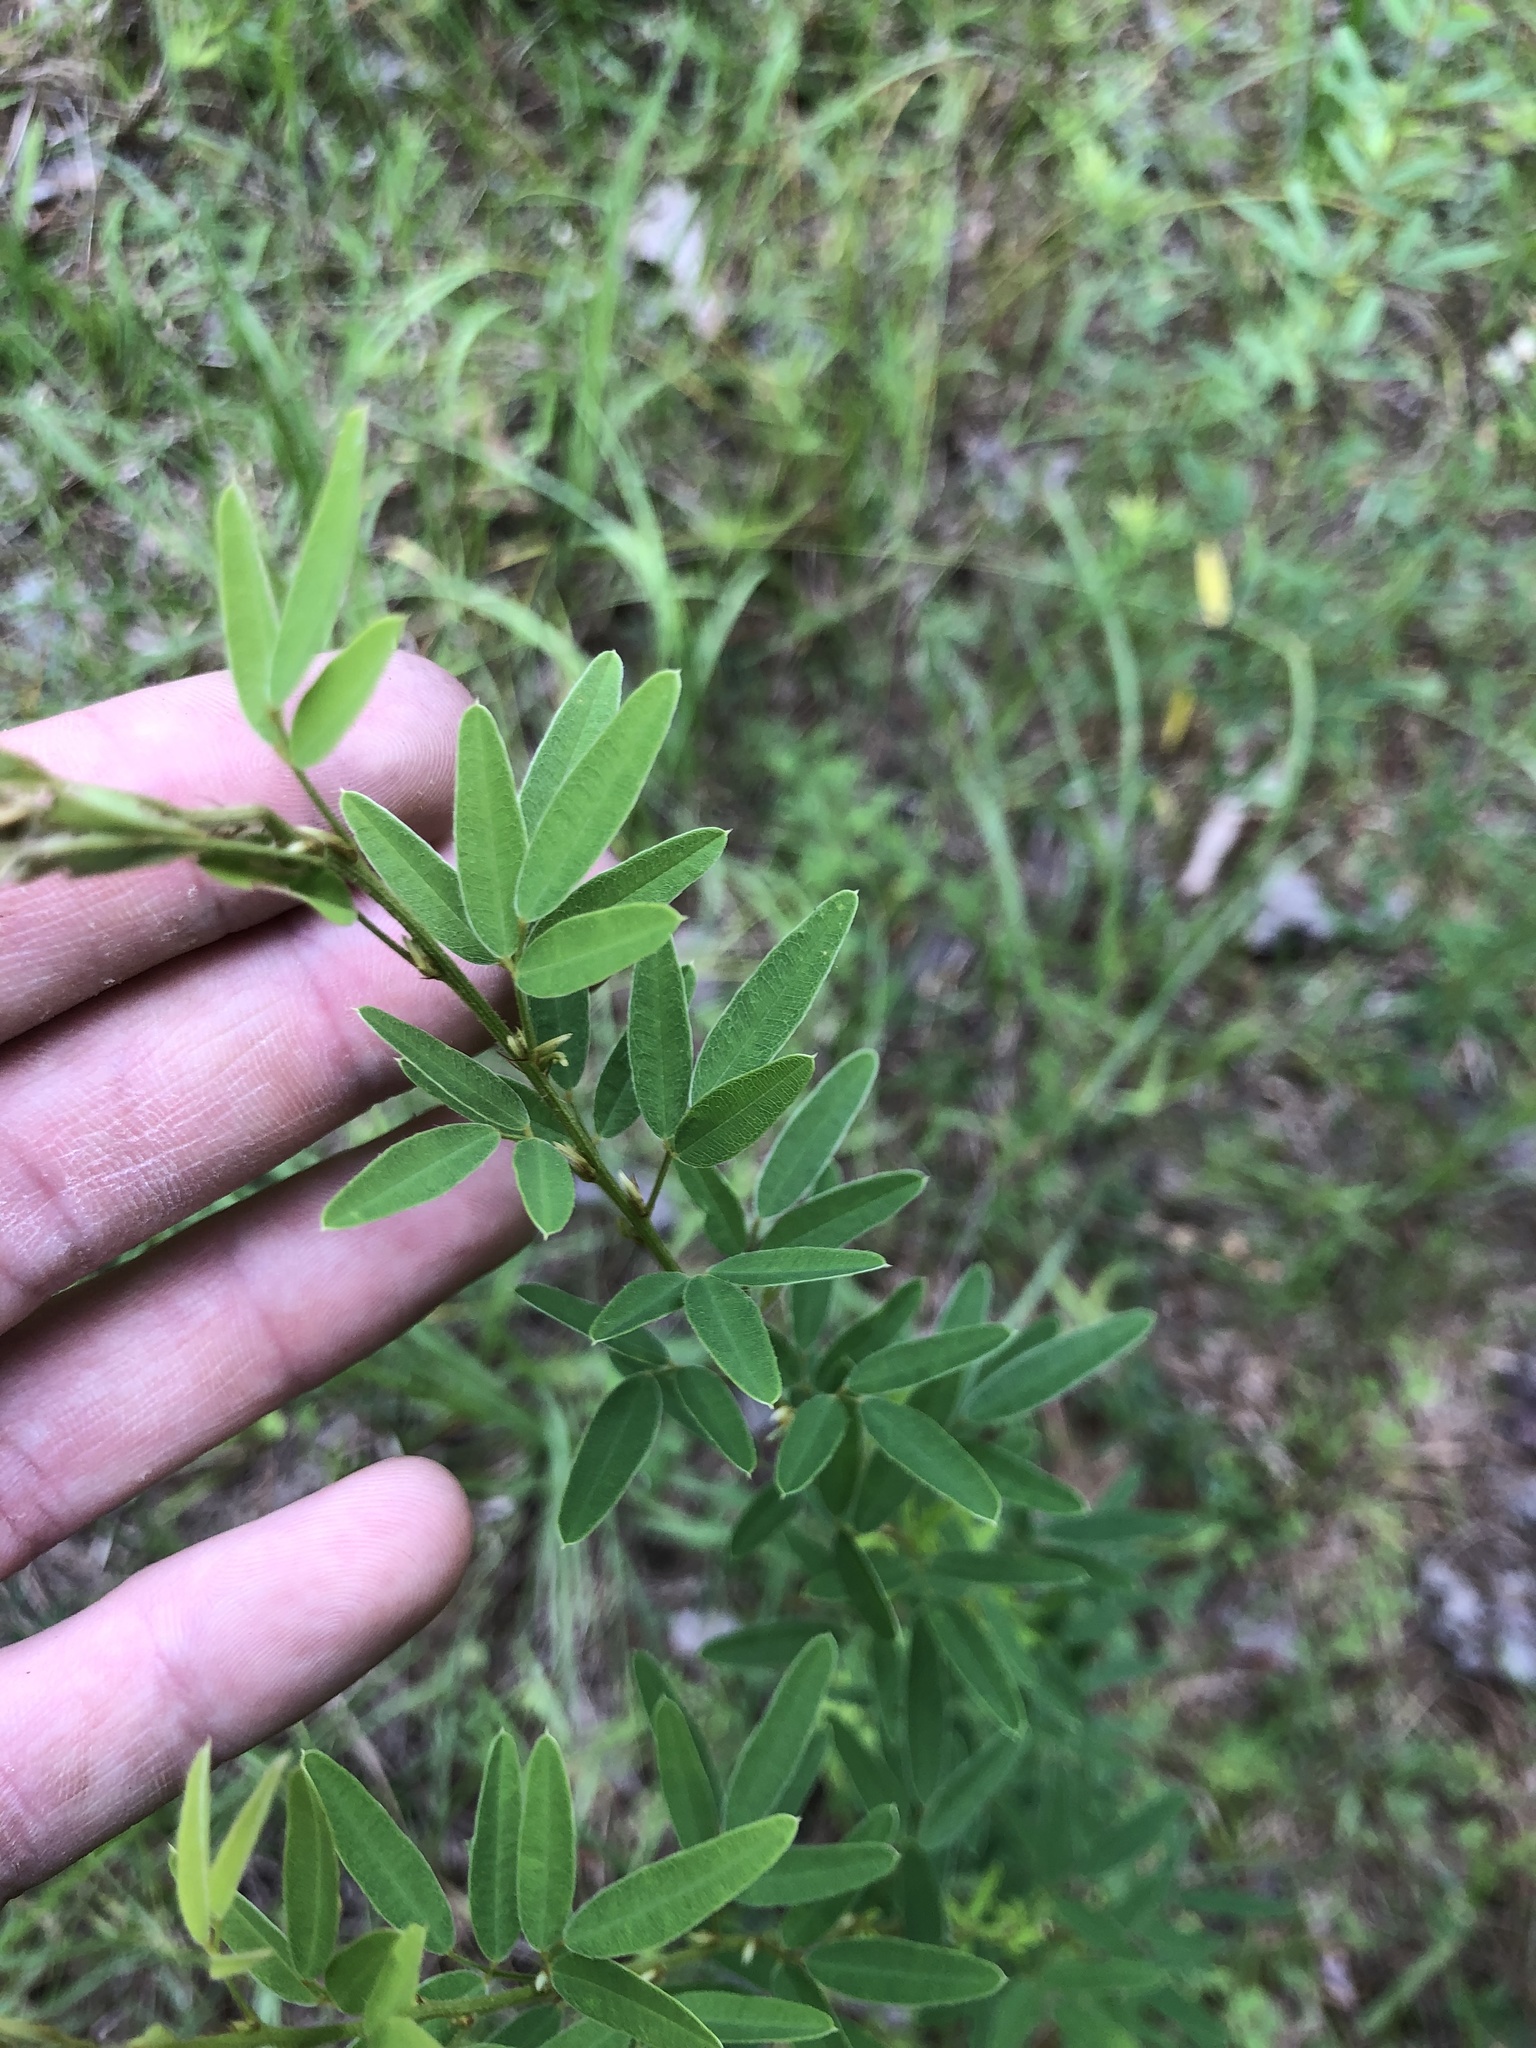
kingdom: Plantae
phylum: Tracheophyta
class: Magnoliopsida
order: Fabales
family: Fabaceae
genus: Lespedeza
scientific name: Lespedeza virginica
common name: Slender bush-clover
